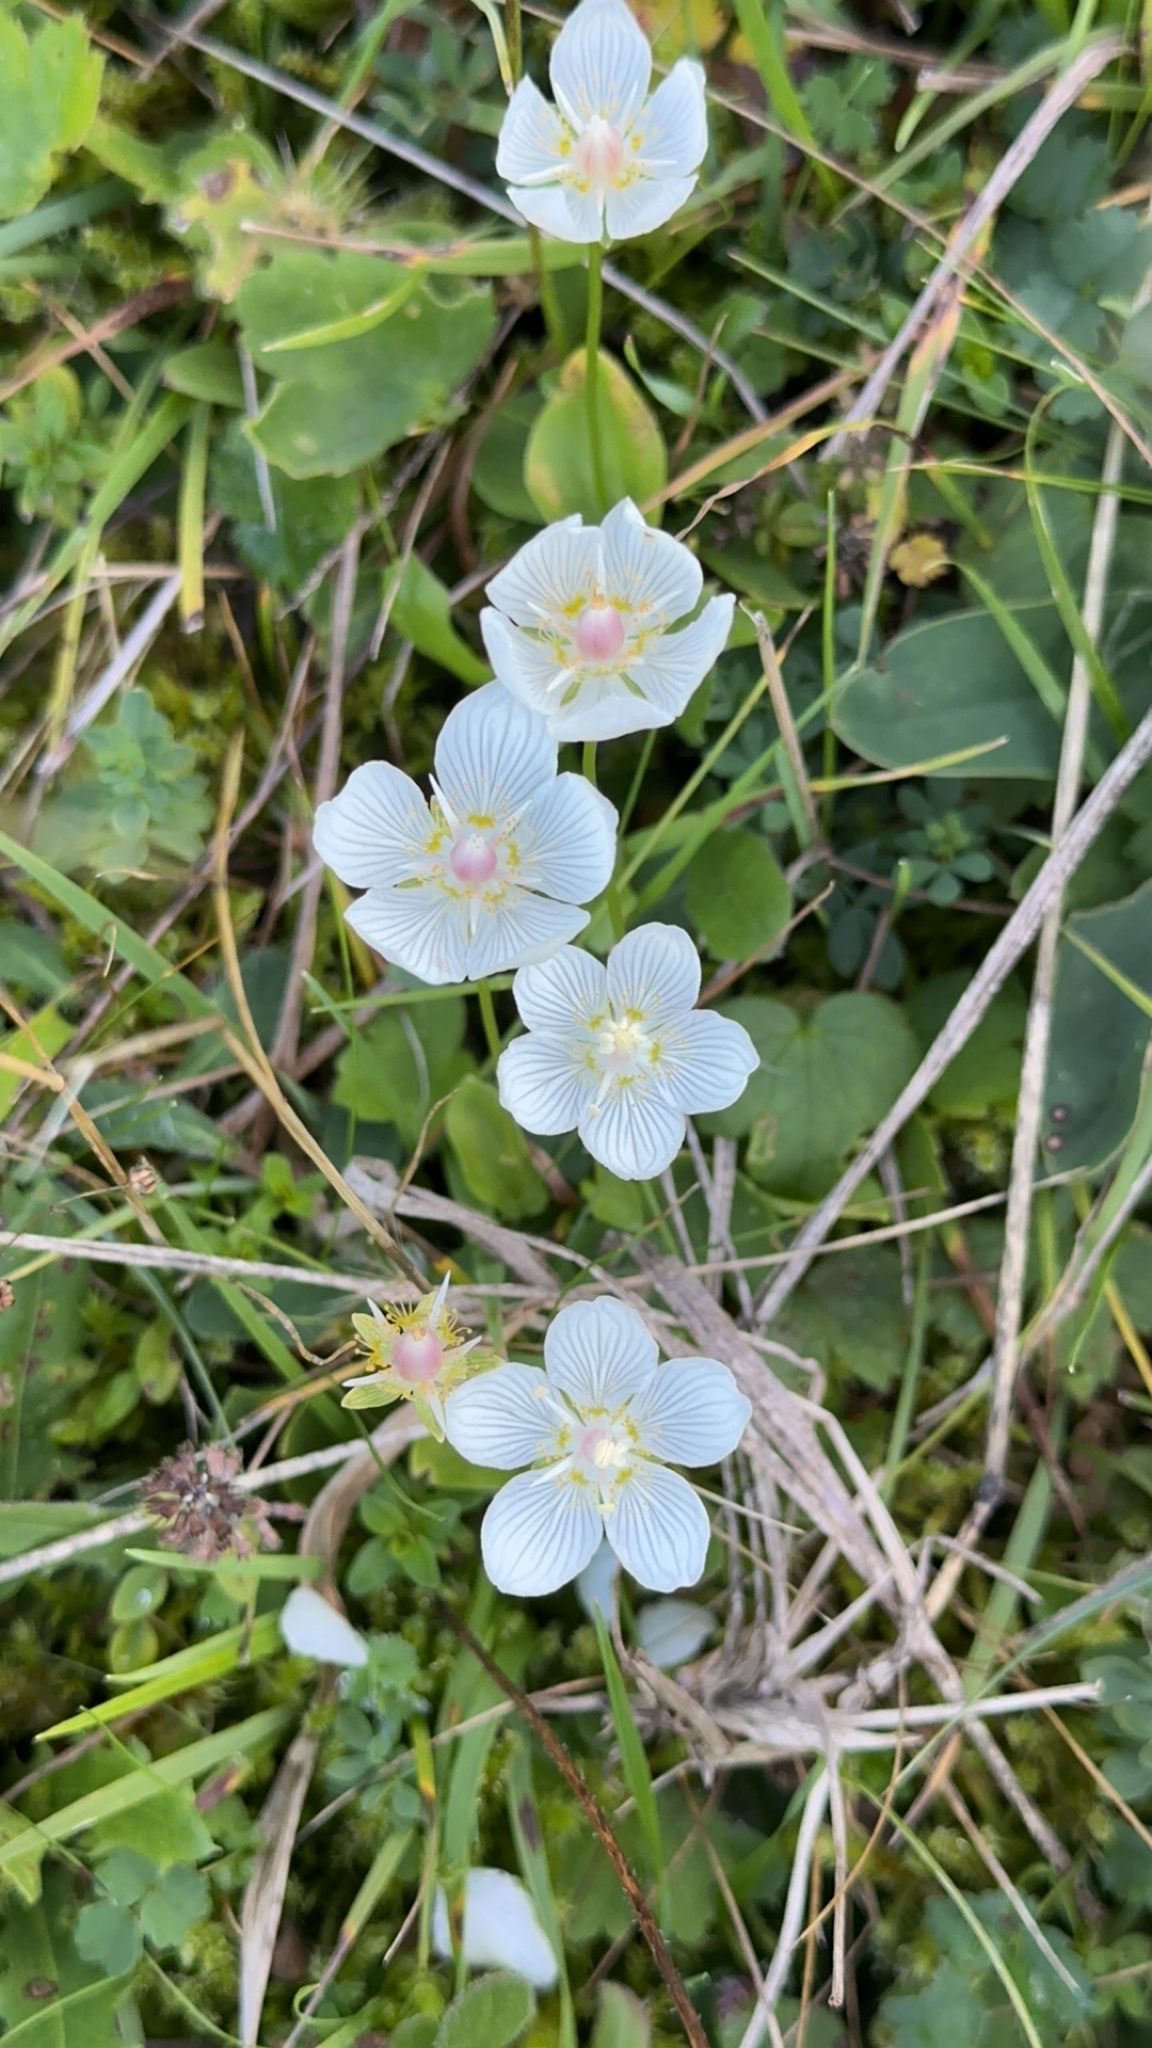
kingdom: Plantae
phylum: Tracheophyta
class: Magnoliopsida
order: Celastrales
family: Parnassiaceae
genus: Parnassia
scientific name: Parnassia palustris
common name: Grass-of-parnassus
